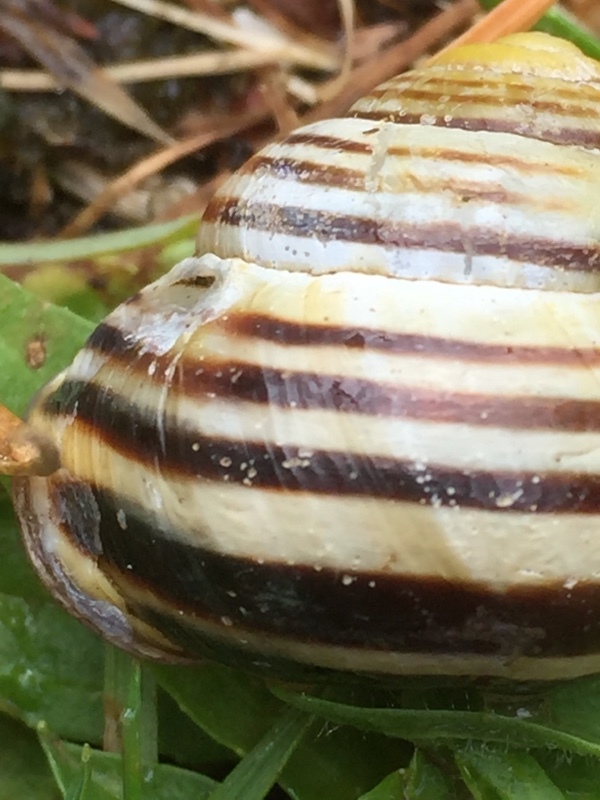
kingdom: Animalia
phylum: Mollusca
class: Gastropoda
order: Stylommatophora
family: Helicidae
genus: Cepaea
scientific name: Cepaea nemoralis
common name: Grovesnail
